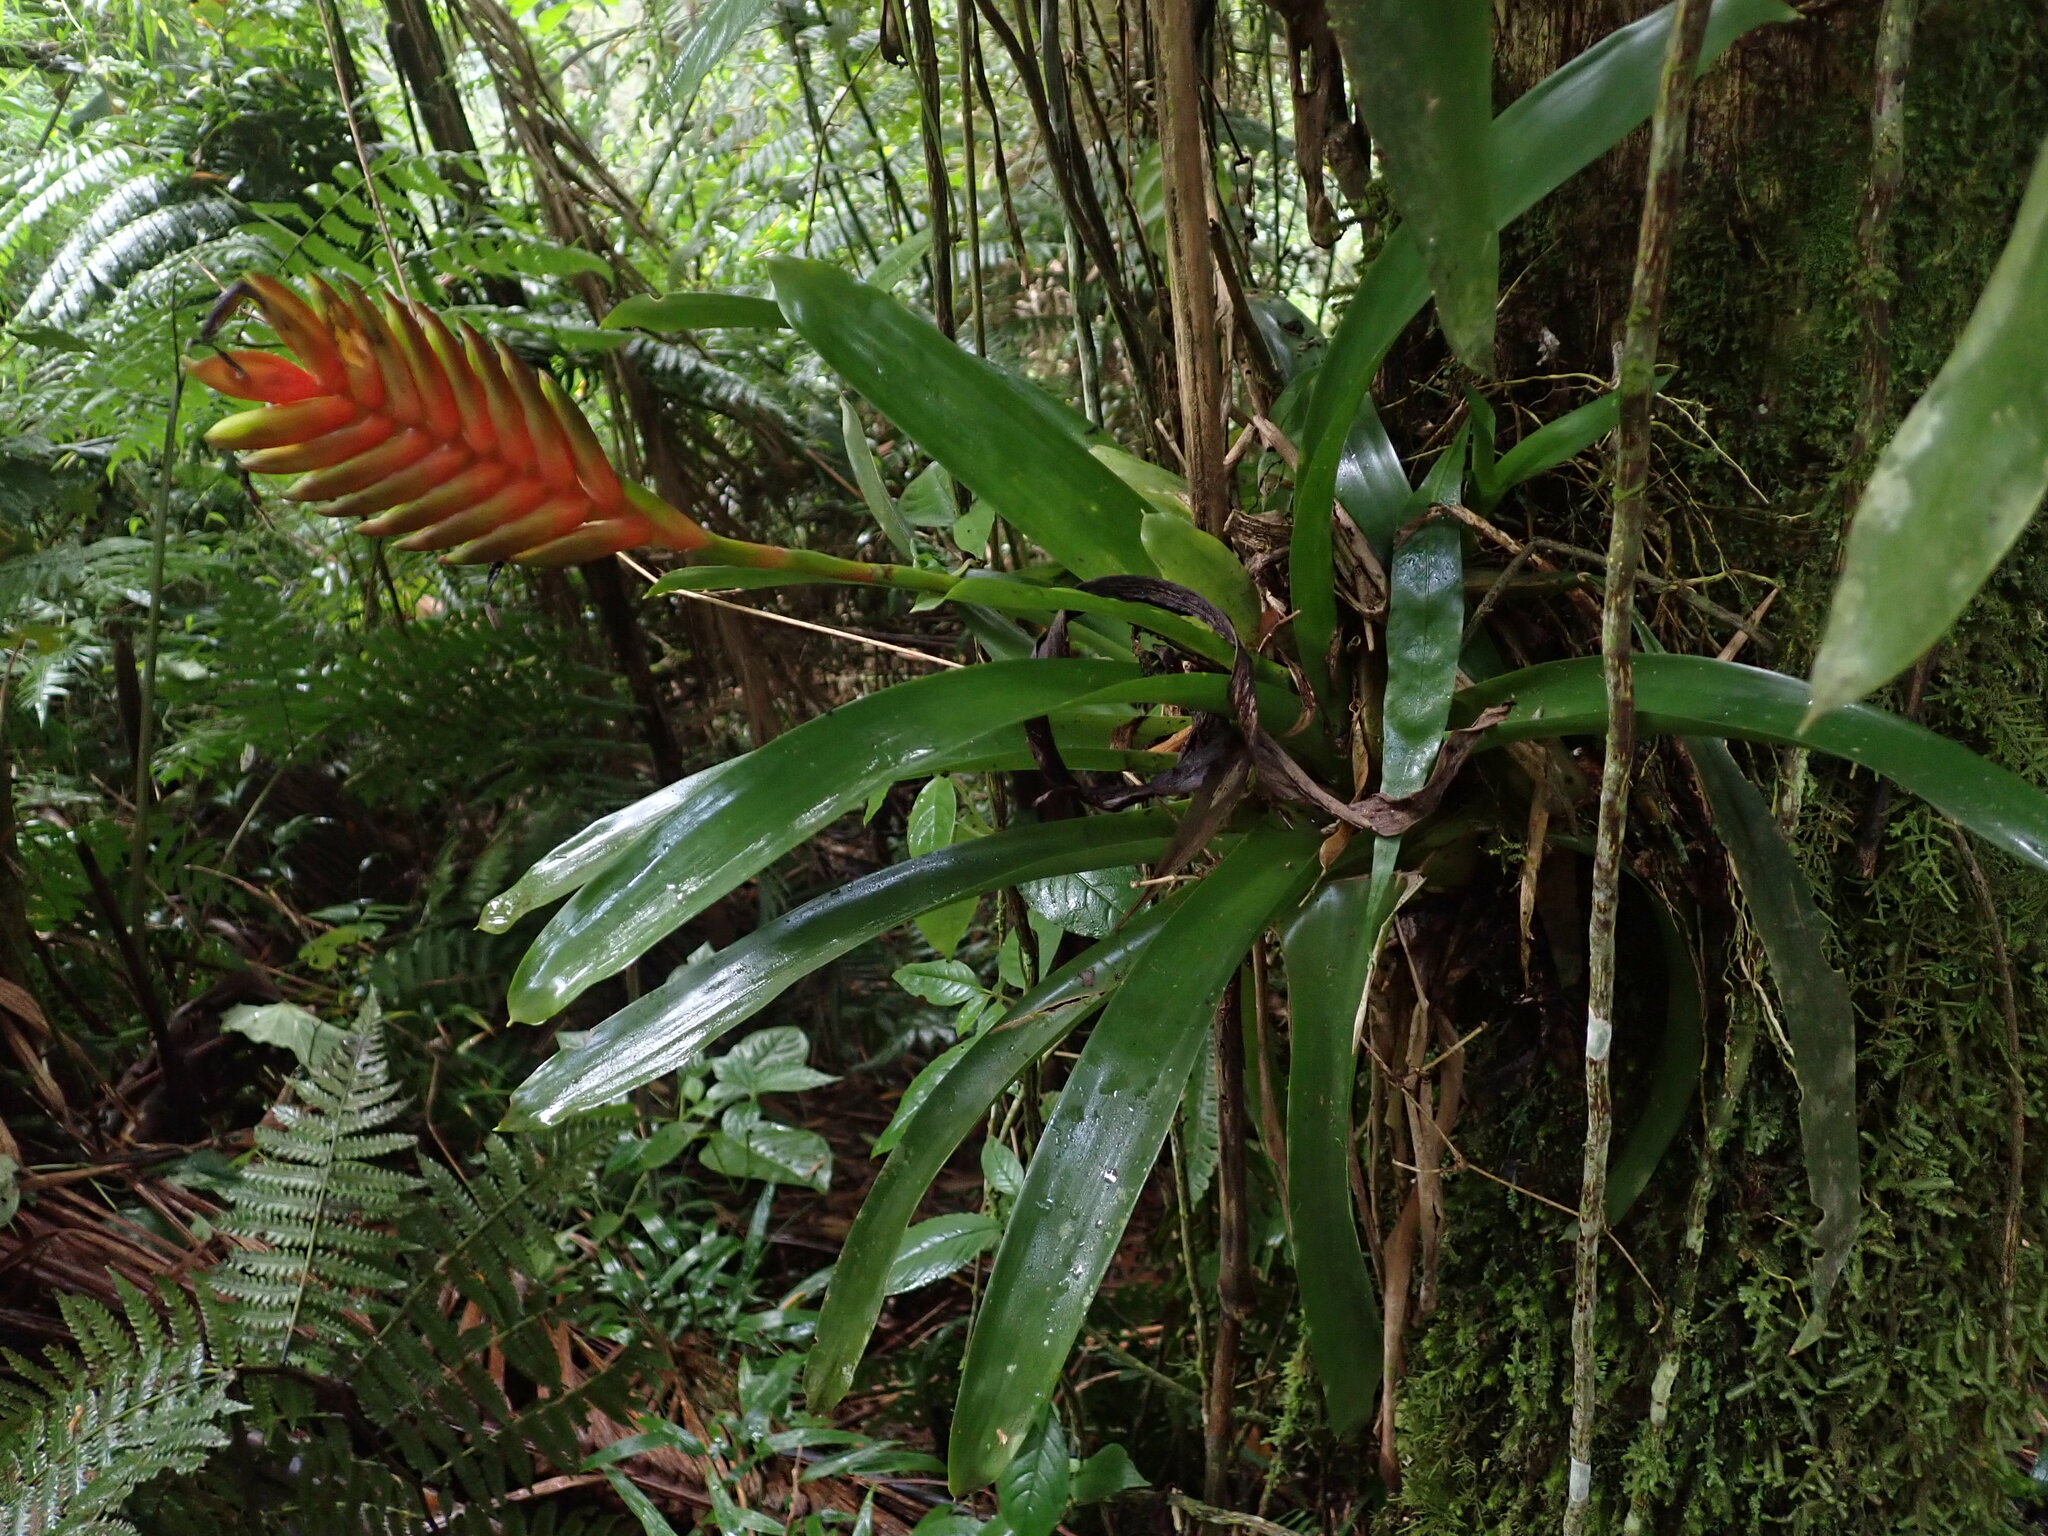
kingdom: Plantae
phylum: Tracheophyta
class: Liliopsida
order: Poales
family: Bromeliaceae
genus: Vriesea
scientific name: Vriesea interrogatoria
